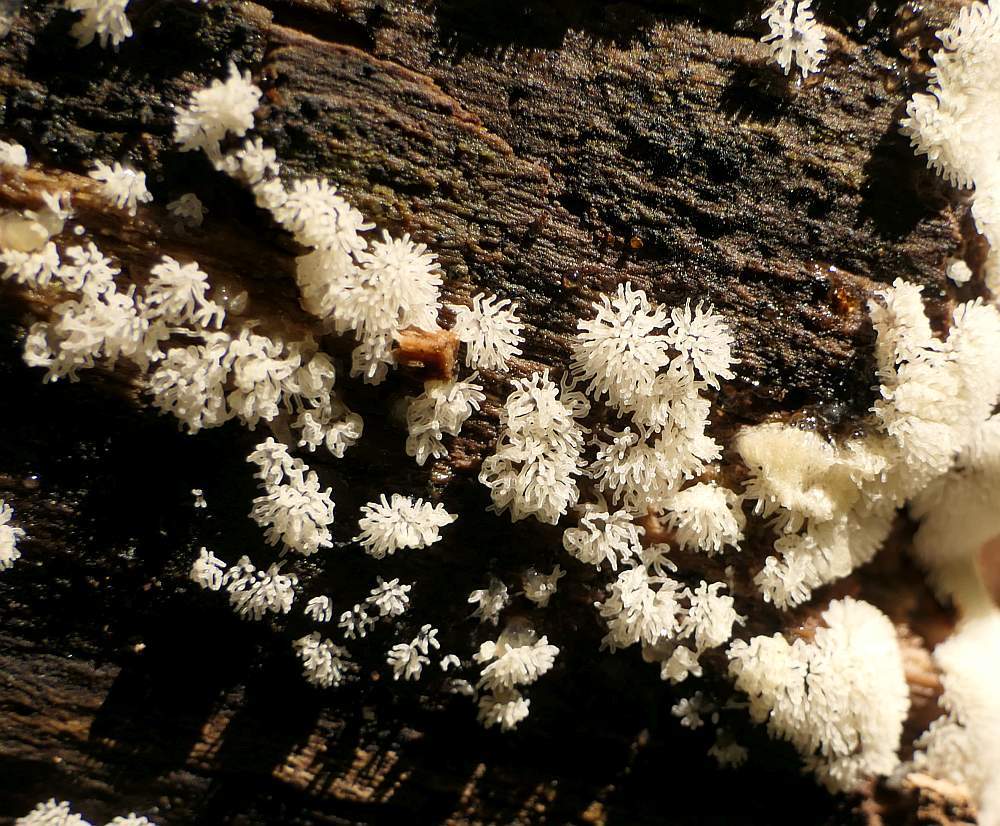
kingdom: Protozoa
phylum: Mycetozoa
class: Protosteliomycetes
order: Ceratiomyxales
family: Ceratiomyxaceae
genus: Ceratiomyxa
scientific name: Ceratiomyxa fruticulosa
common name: Honeycomb coral slime mold
